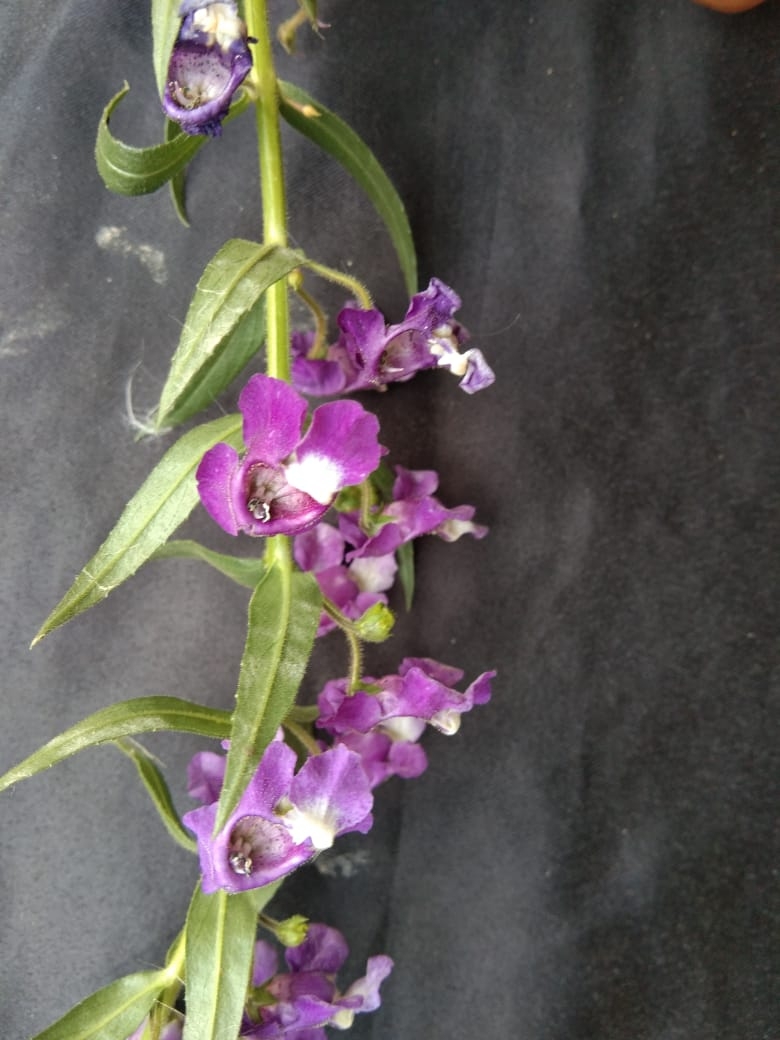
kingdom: Plantae
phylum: Tracheophyta
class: Magnoliopsida
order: Lamiales
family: Plantaginaceae
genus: Angelonia
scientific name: Angelonia salicariifolia
